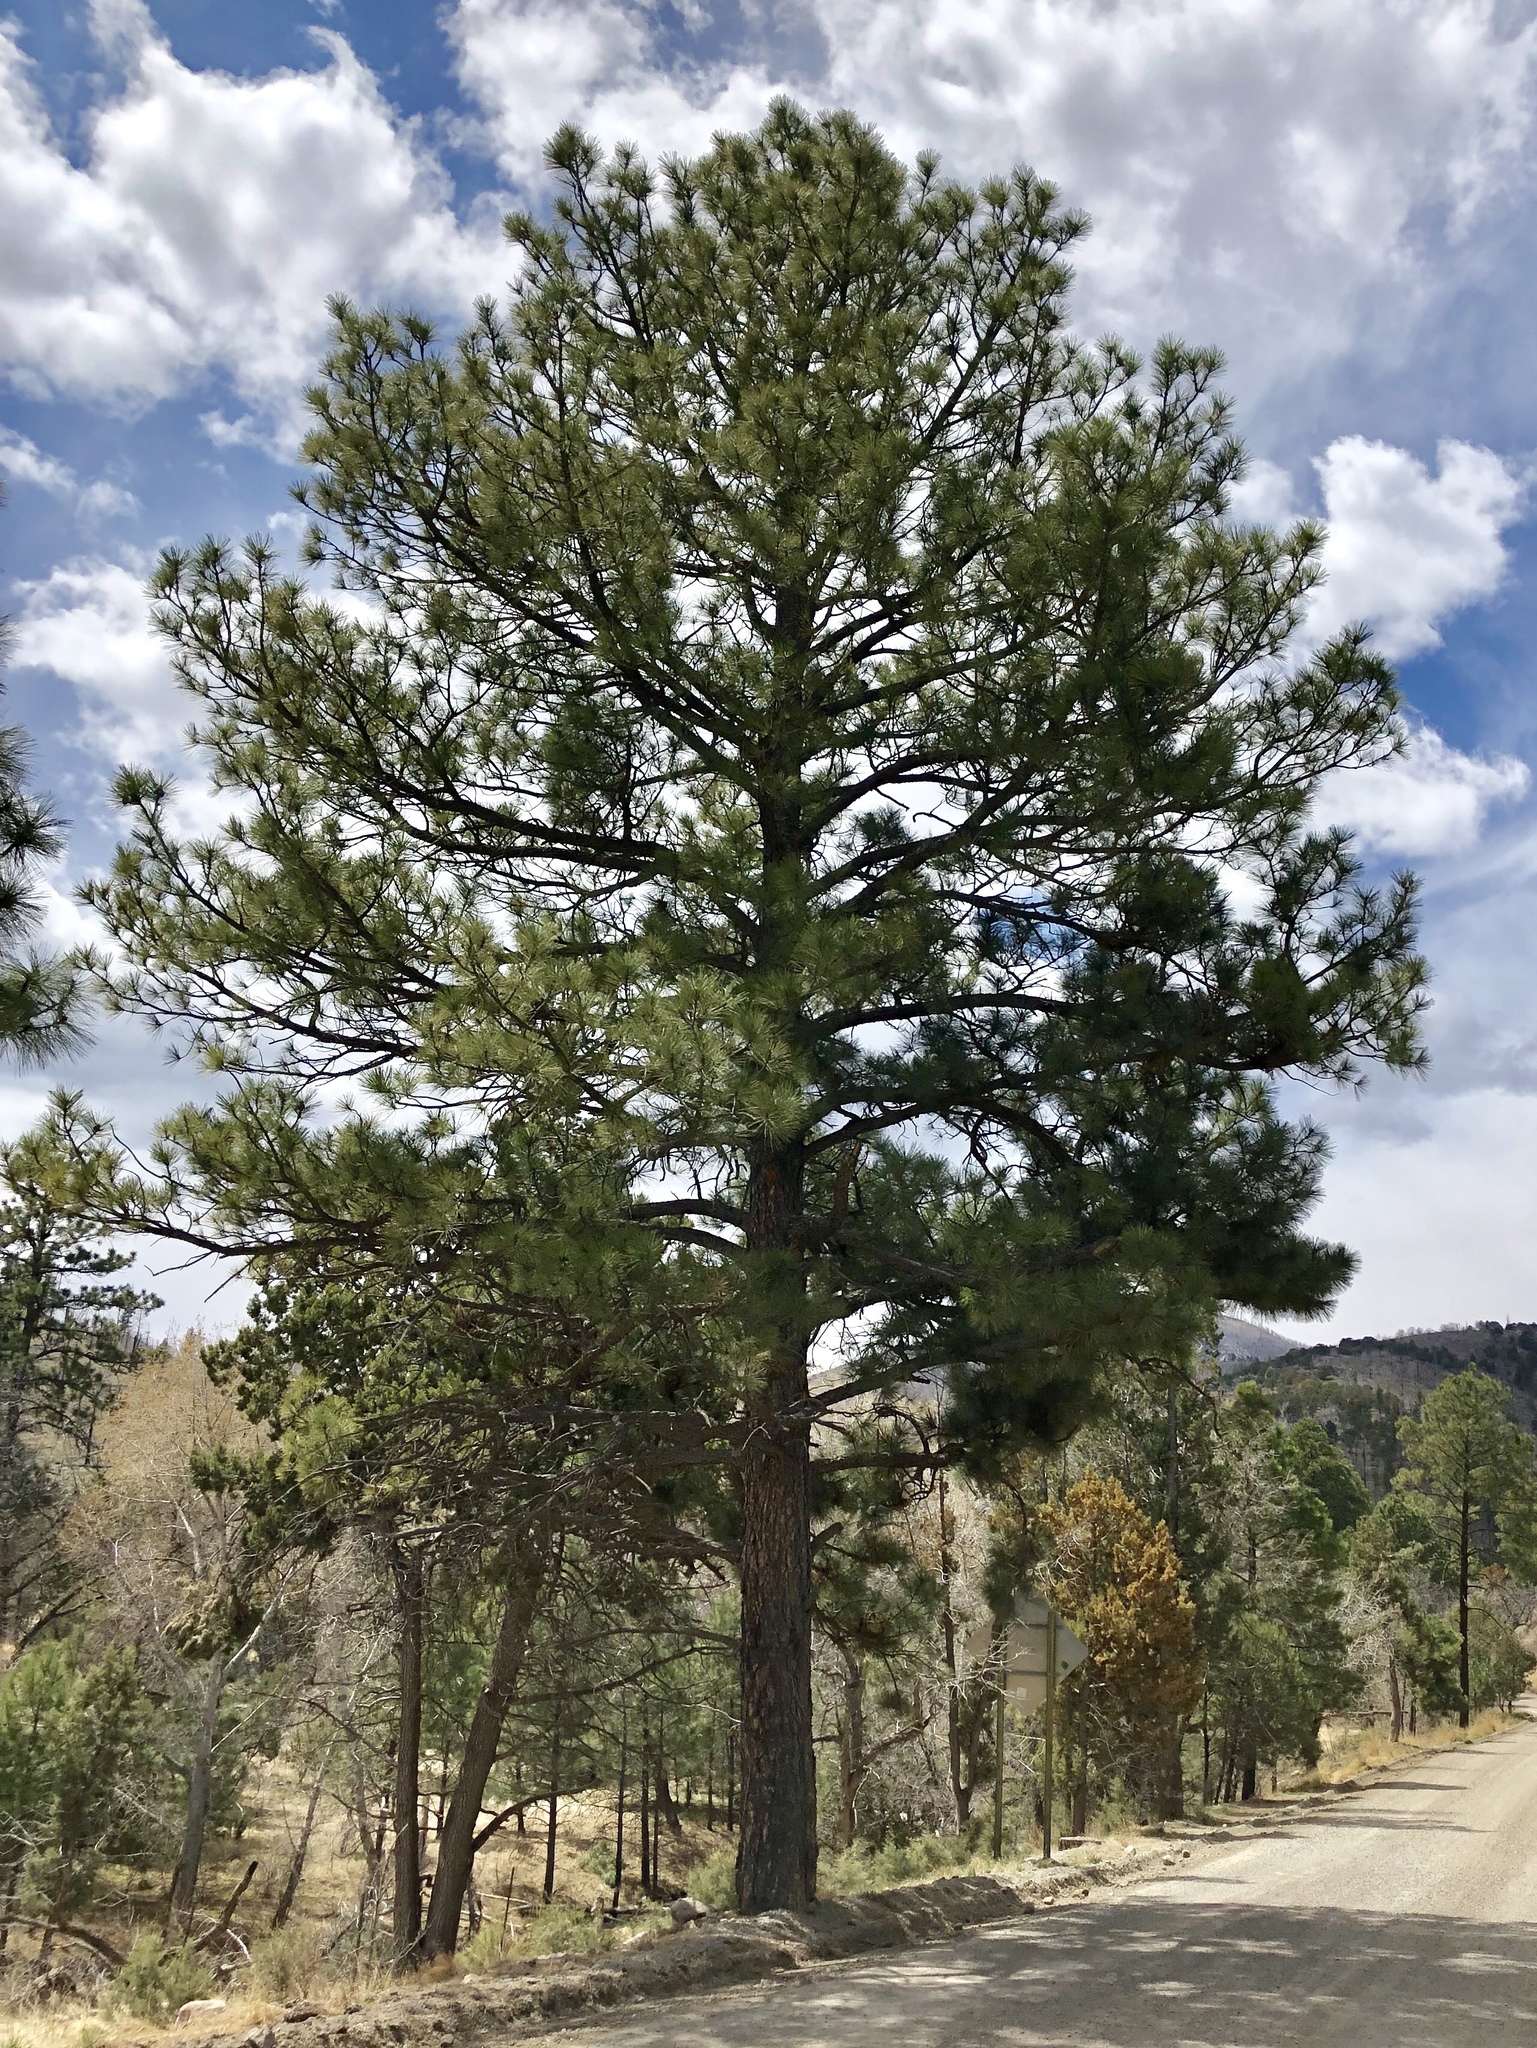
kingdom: Plantae
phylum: Tracheophyta
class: Pinopsida
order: Pinales
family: Pinaceae
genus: Pinus
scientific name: Pinus ponderosa
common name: Western yellow-pine
